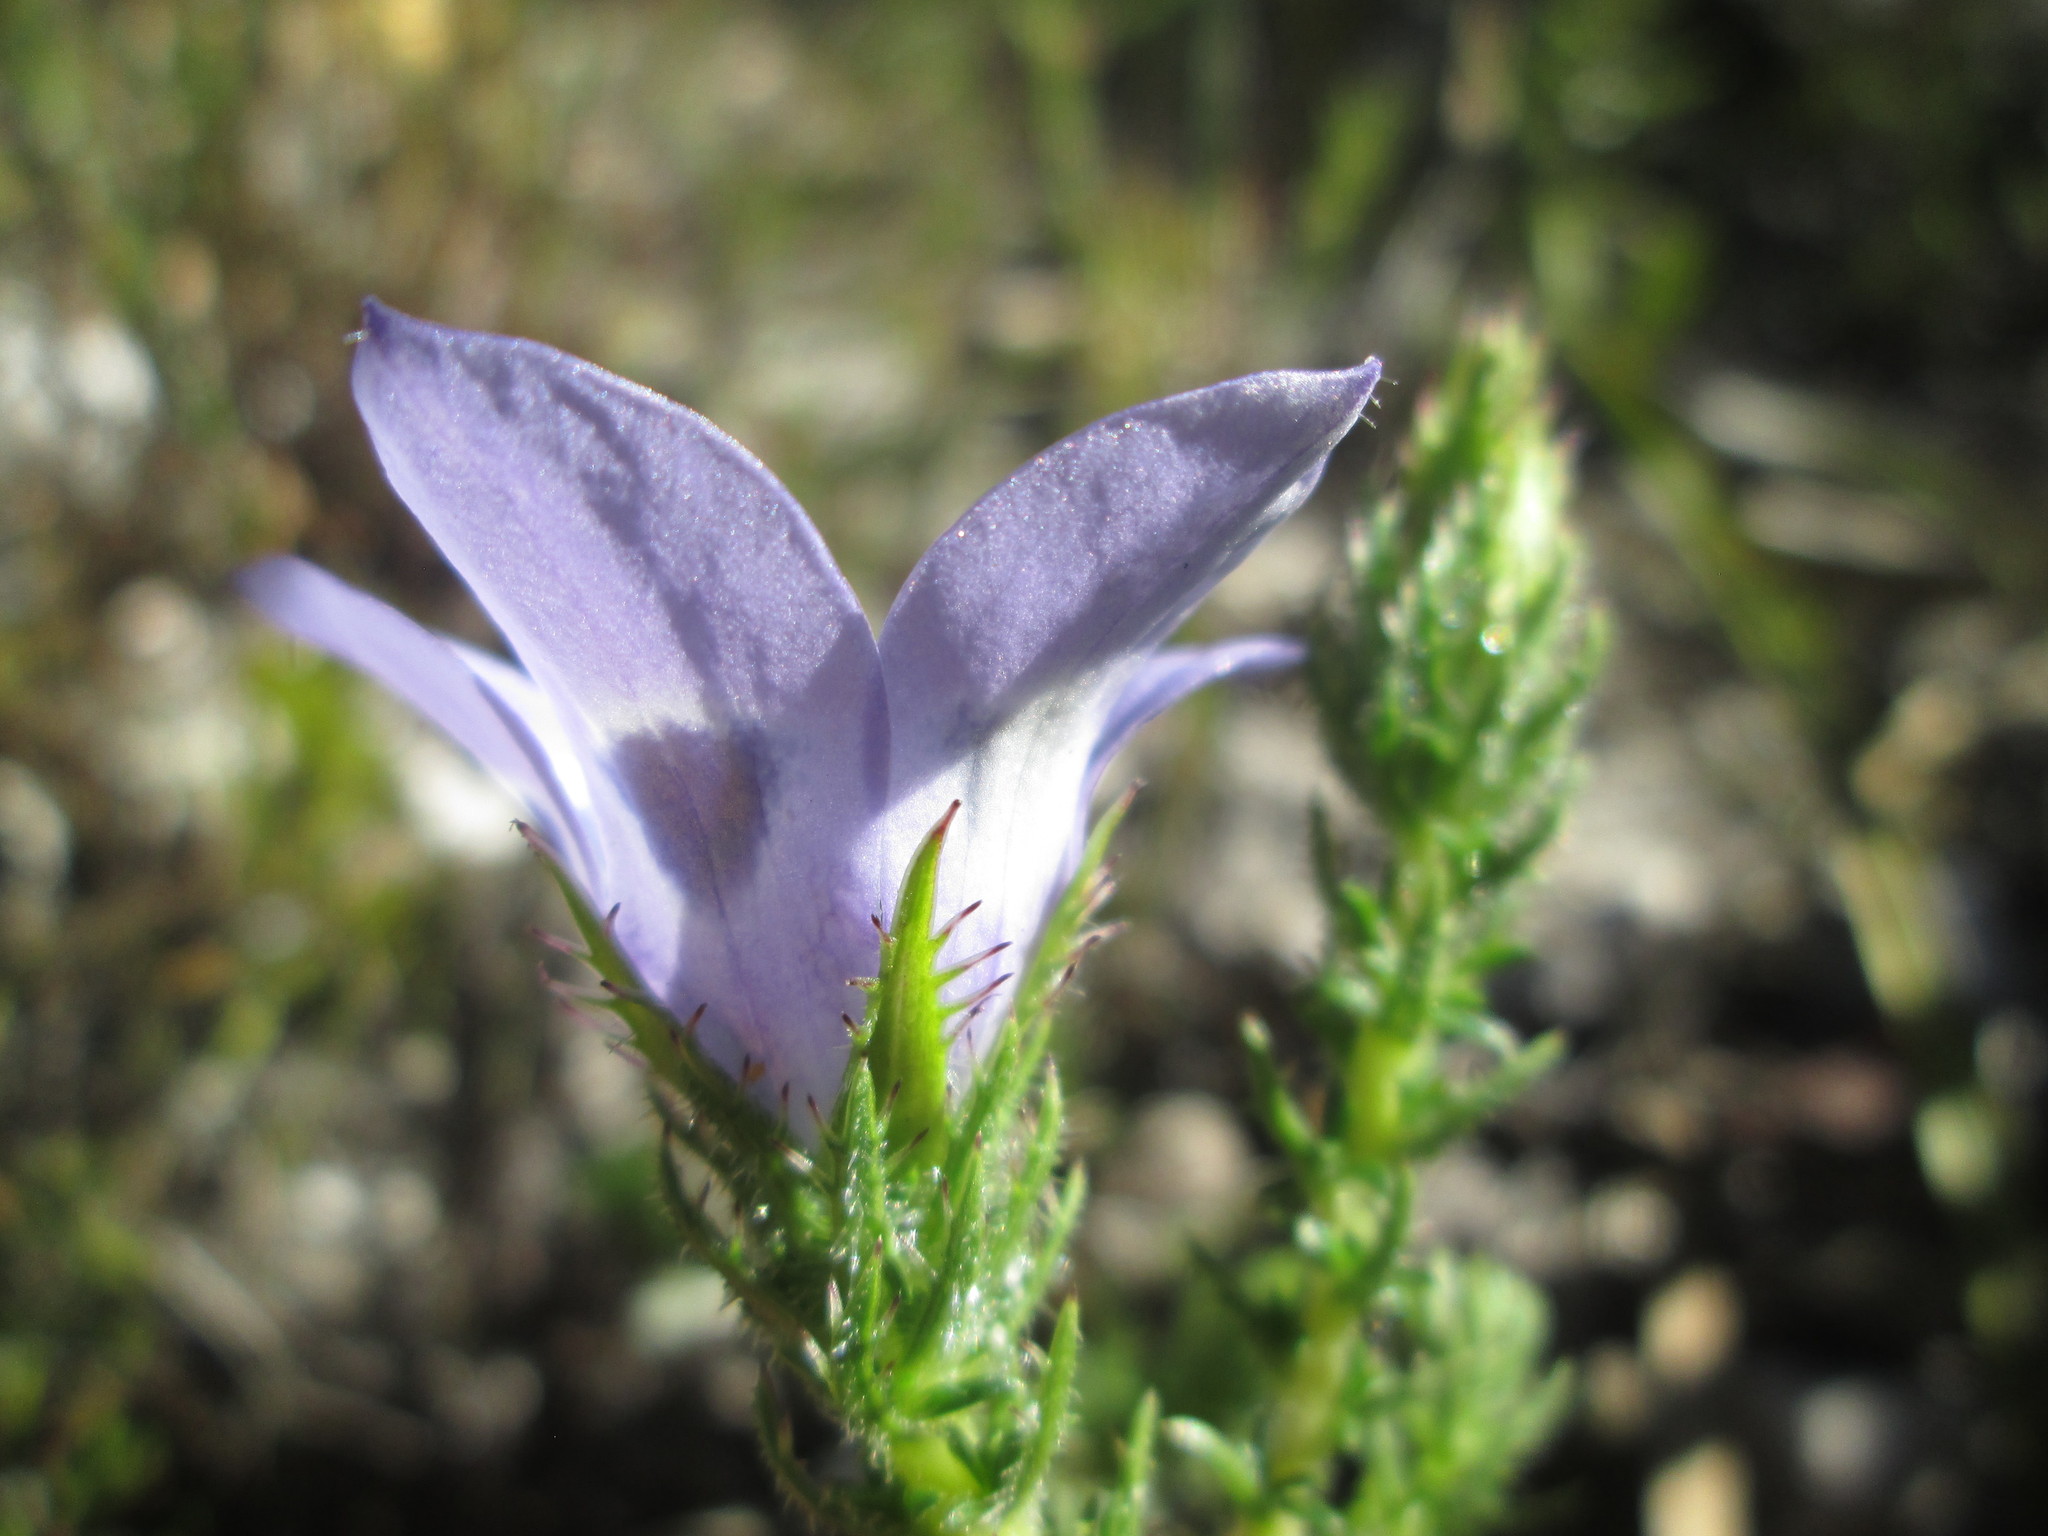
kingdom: Plantae
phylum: Tracheophyta
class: Magnoliopsida
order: Asterales
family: Campanulaceae
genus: Roella
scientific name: Roella incurva
